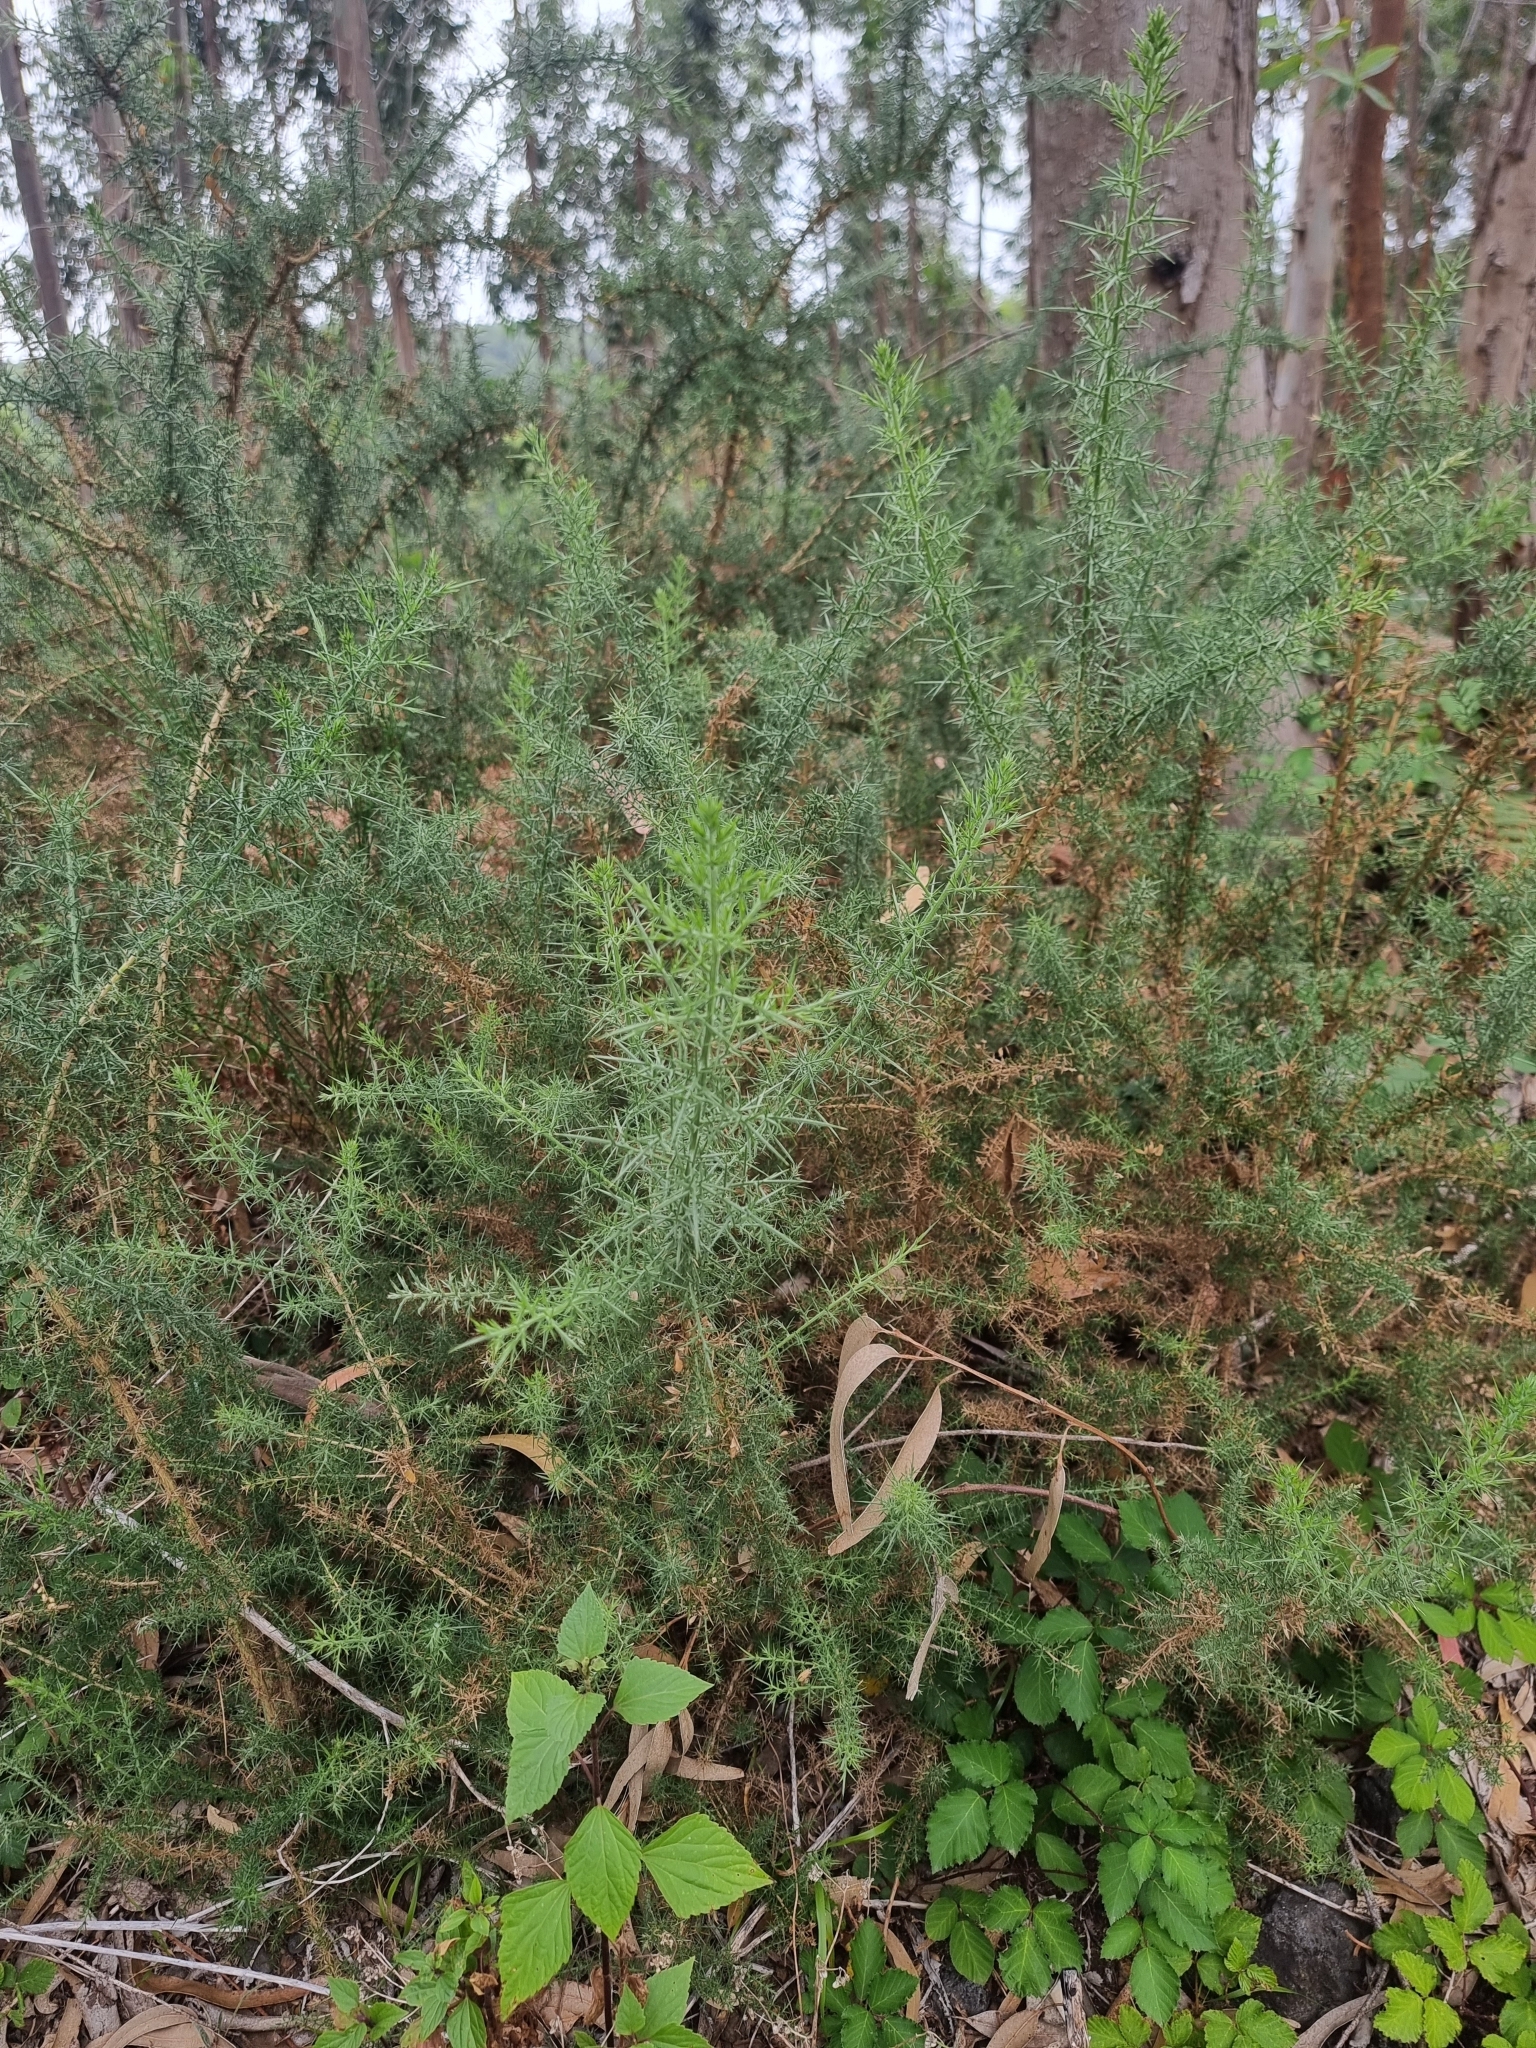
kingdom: Plantae
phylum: Tracheophyta
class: Magnoliopsida
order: Fabales
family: Fabaceae
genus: Ulex
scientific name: Ulex europaeus
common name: Common gorse
